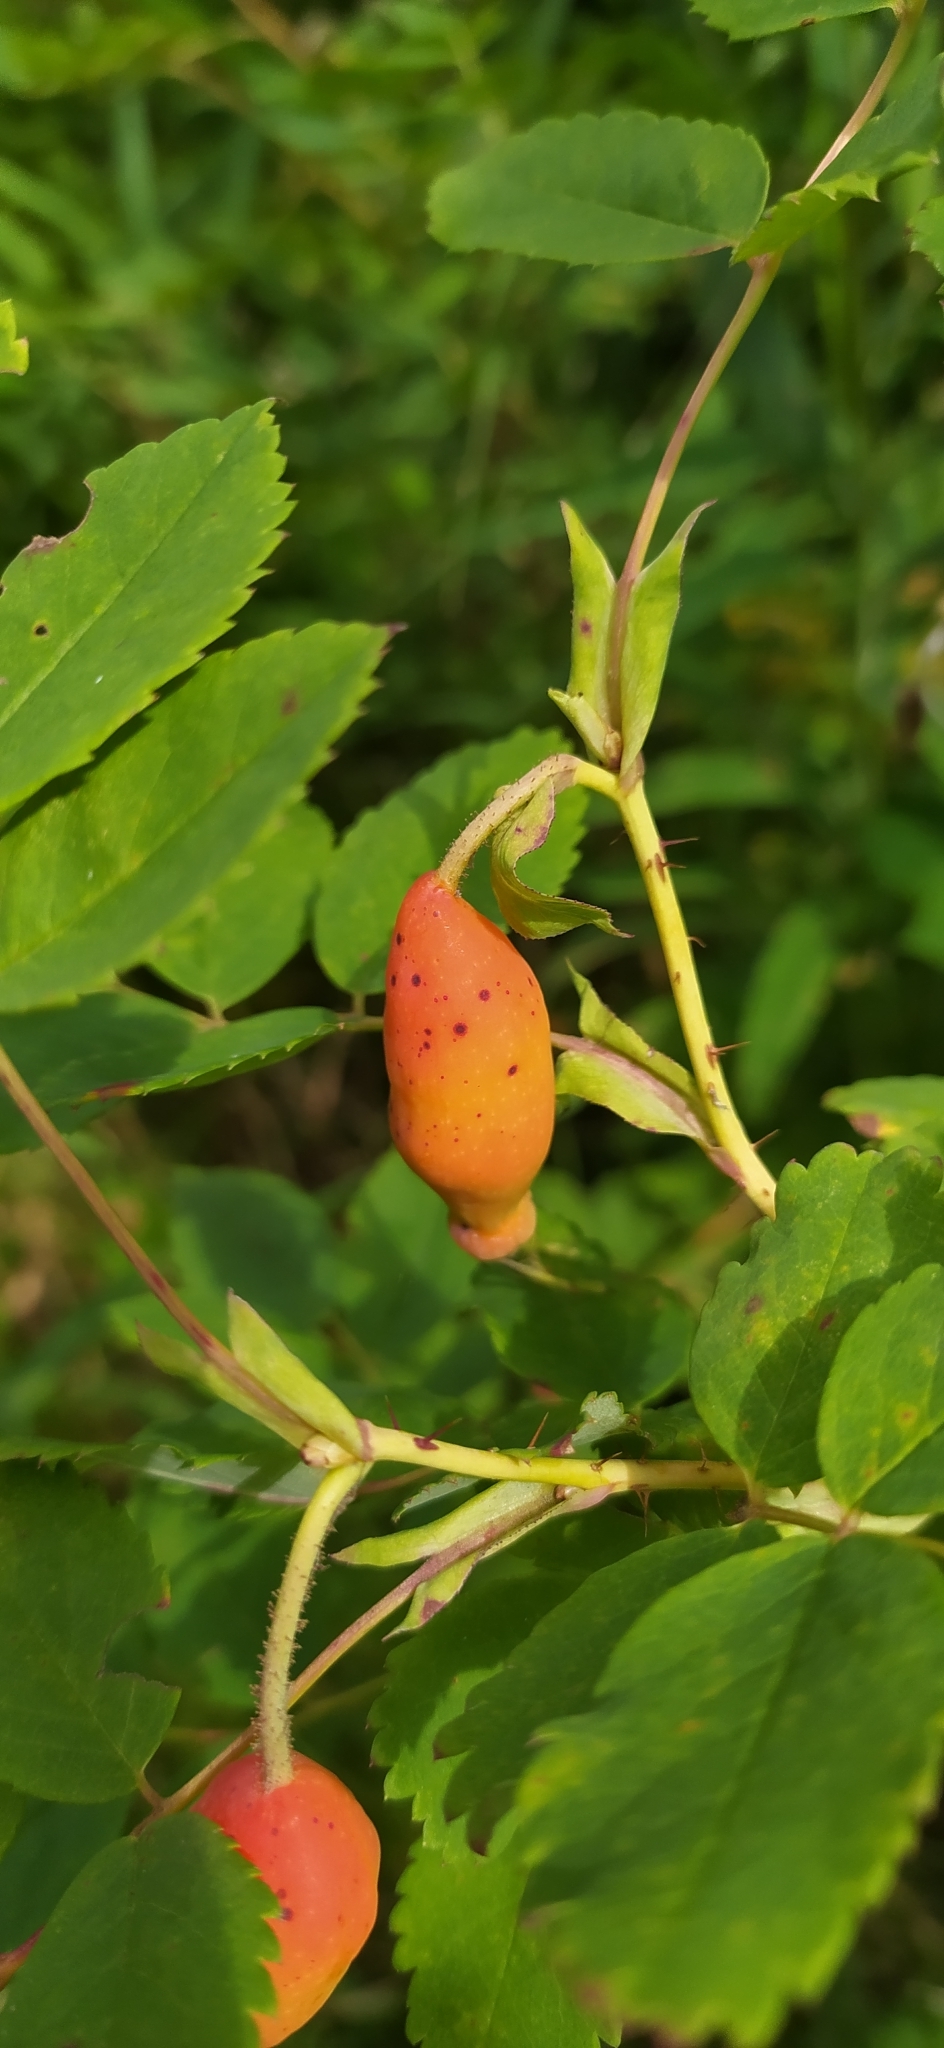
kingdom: Plantae
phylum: Tracheophyta
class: Magnoliopsida
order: Rosales
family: Rosaceae
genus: Rosa
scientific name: Rosa acicularis
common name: Prickly rose
